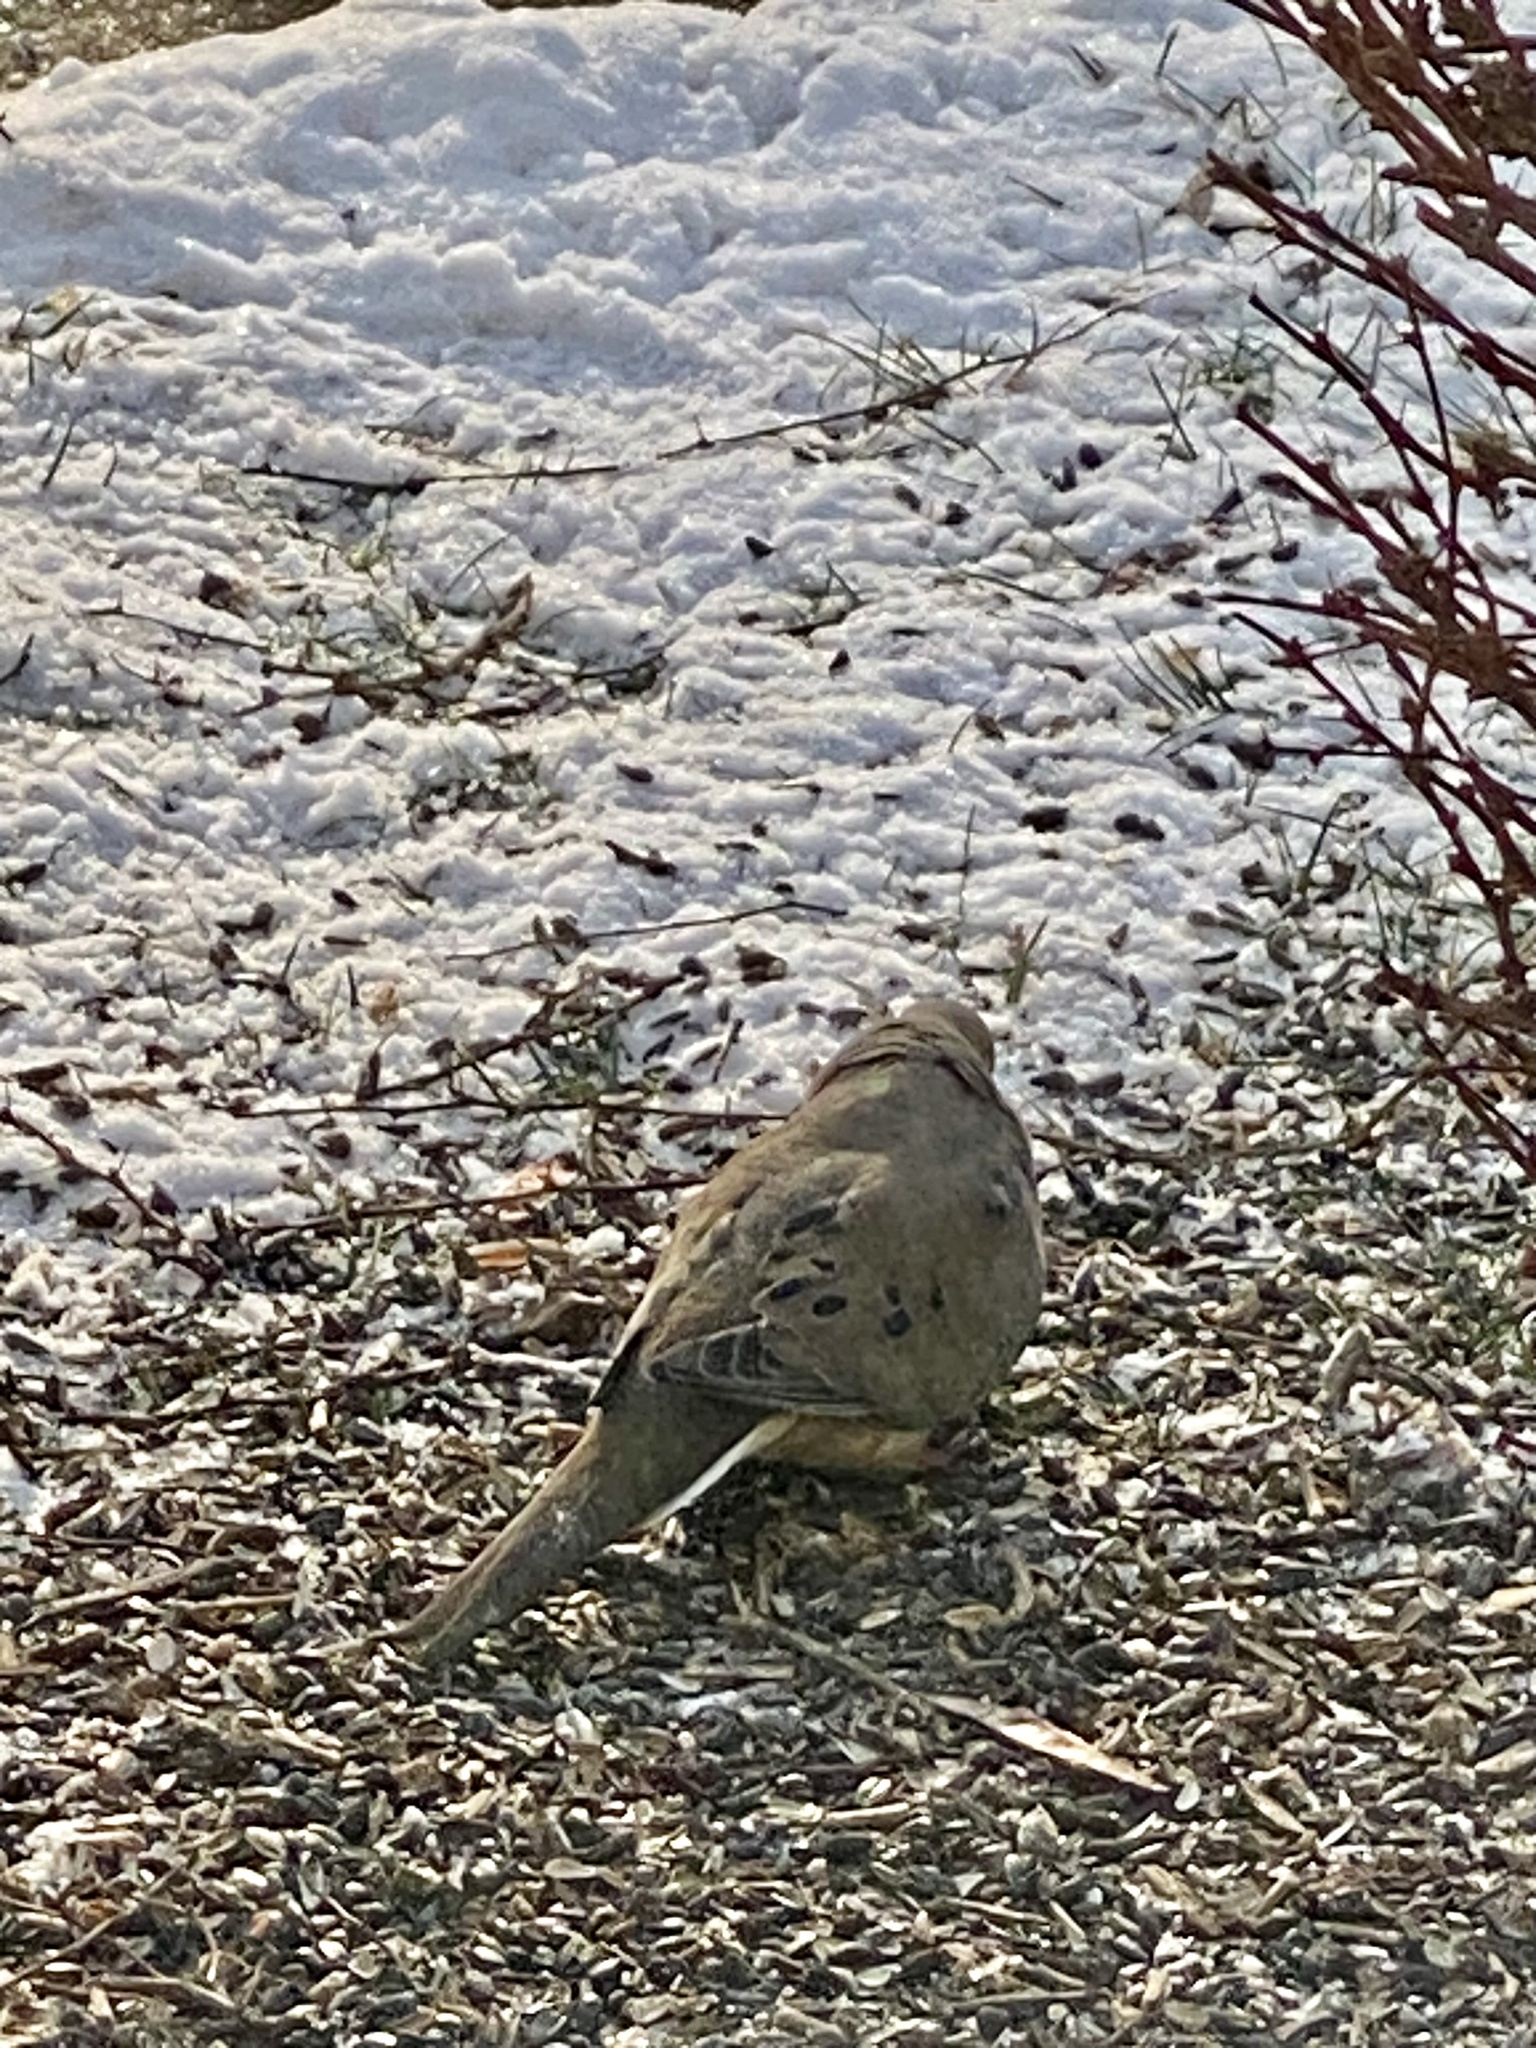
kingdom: Animalia
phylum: Chordata
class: Aves
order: Columbiformes
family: Columbidae
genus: Zenaida
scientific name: Zenaida macroura
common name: Mourning dove
